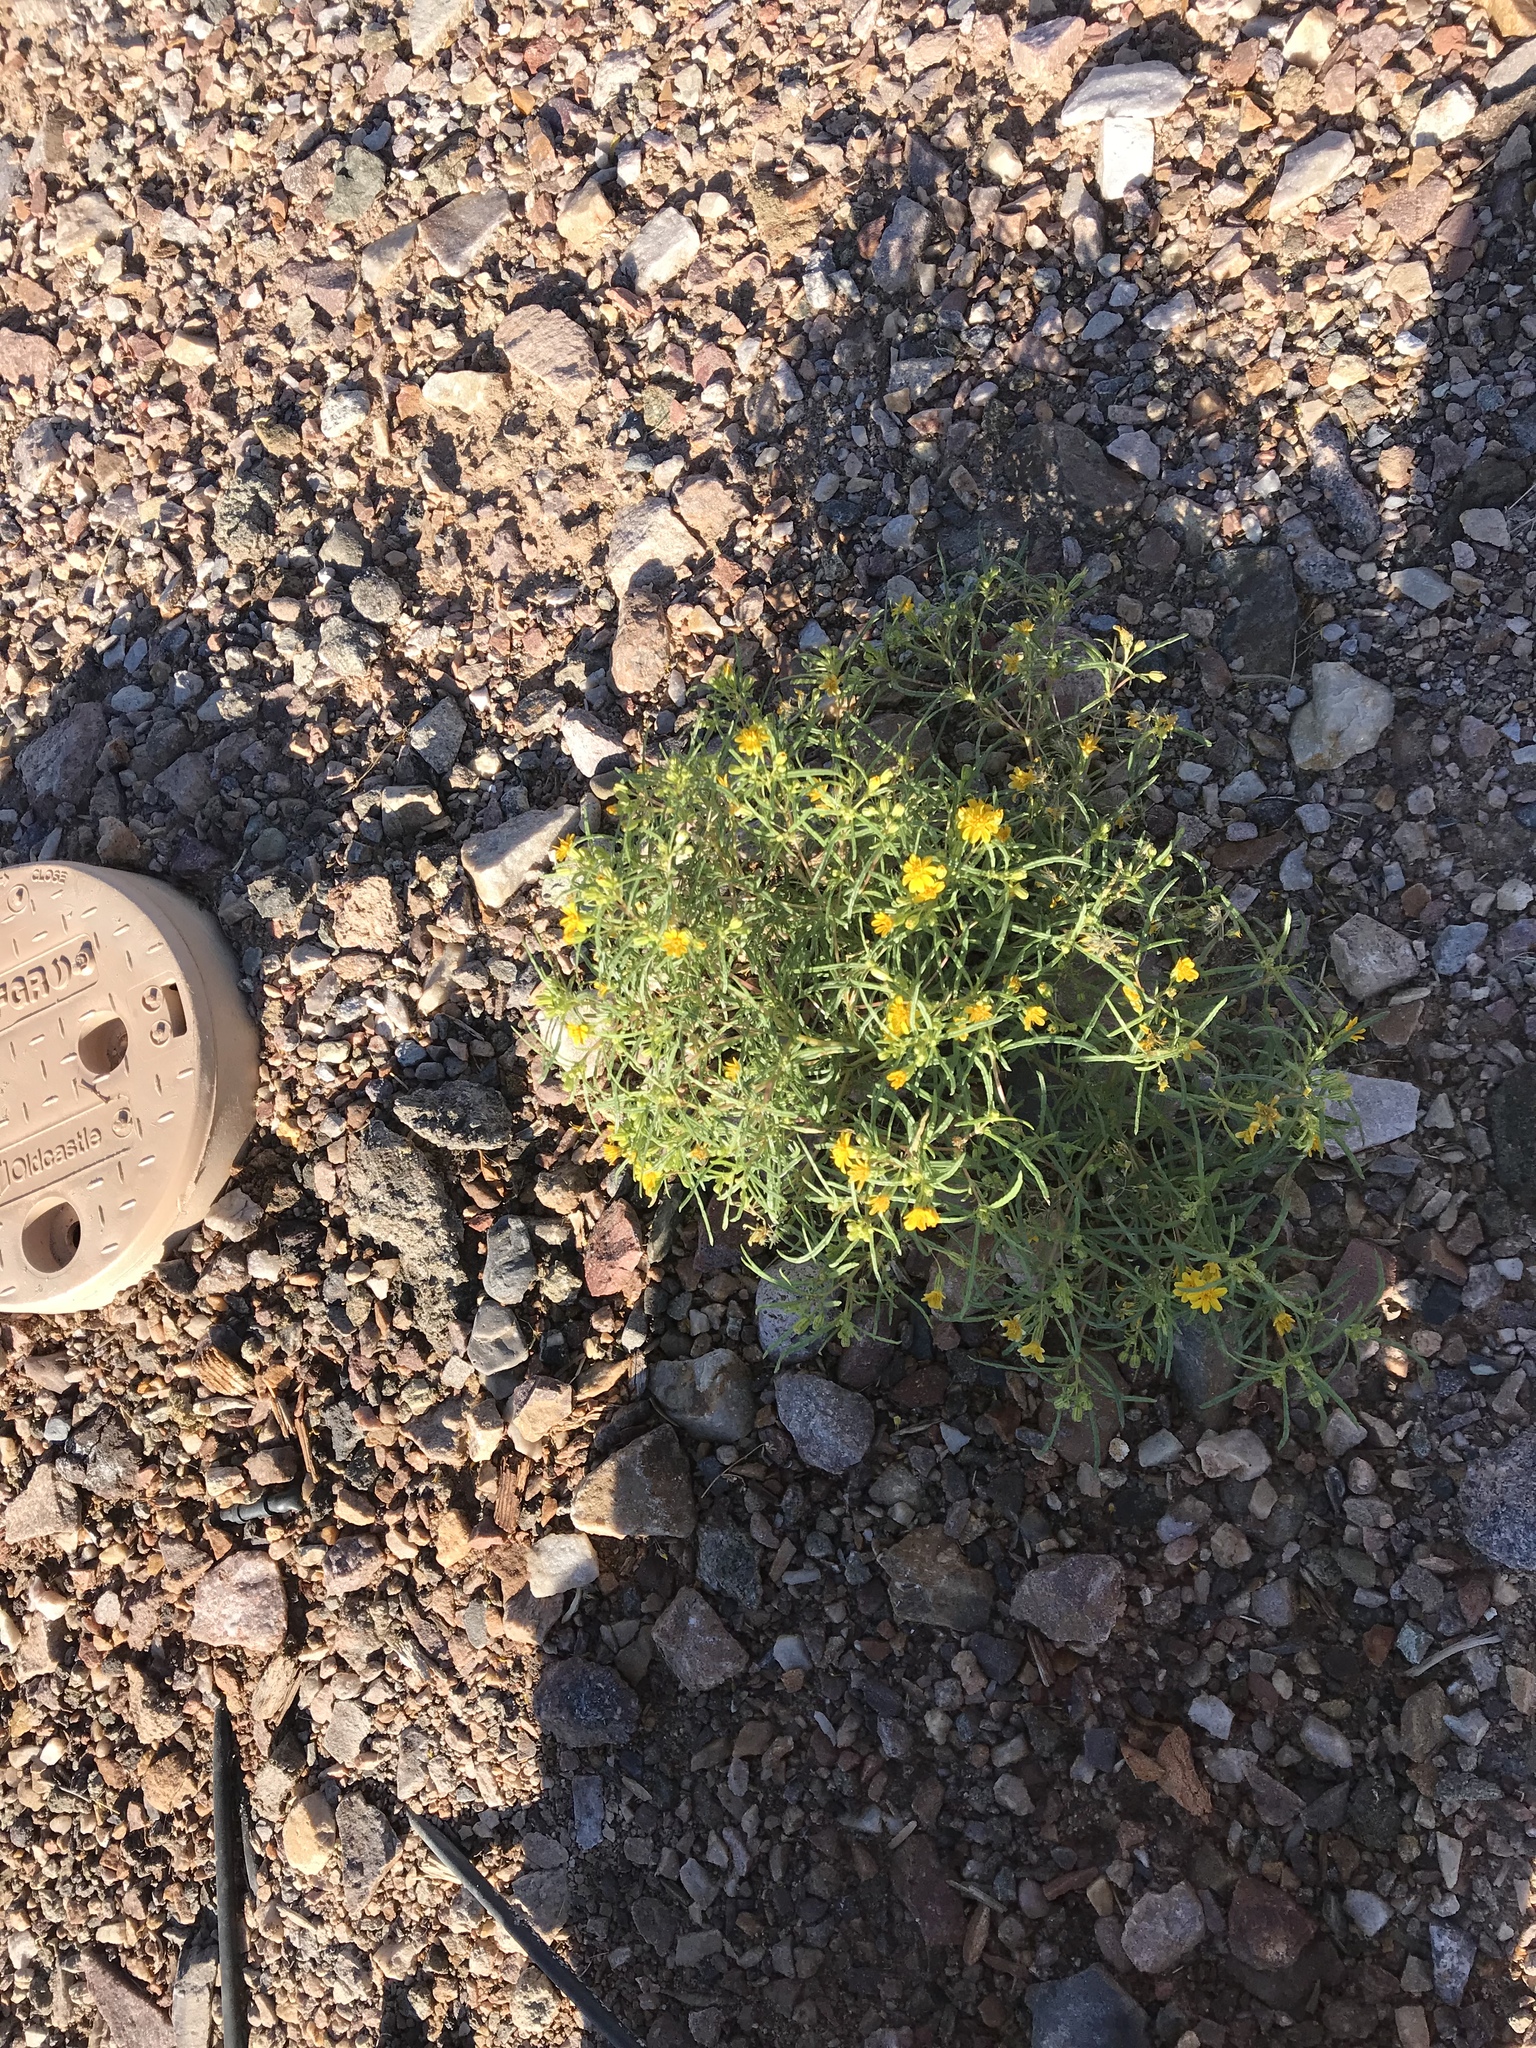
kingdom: Plantae
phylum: Tracheophyta
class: Magnoliopsida
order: Asterales
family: Asteraceae
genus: Pectis
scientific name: Pectis papposa
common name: Many-bristle chinchweed
